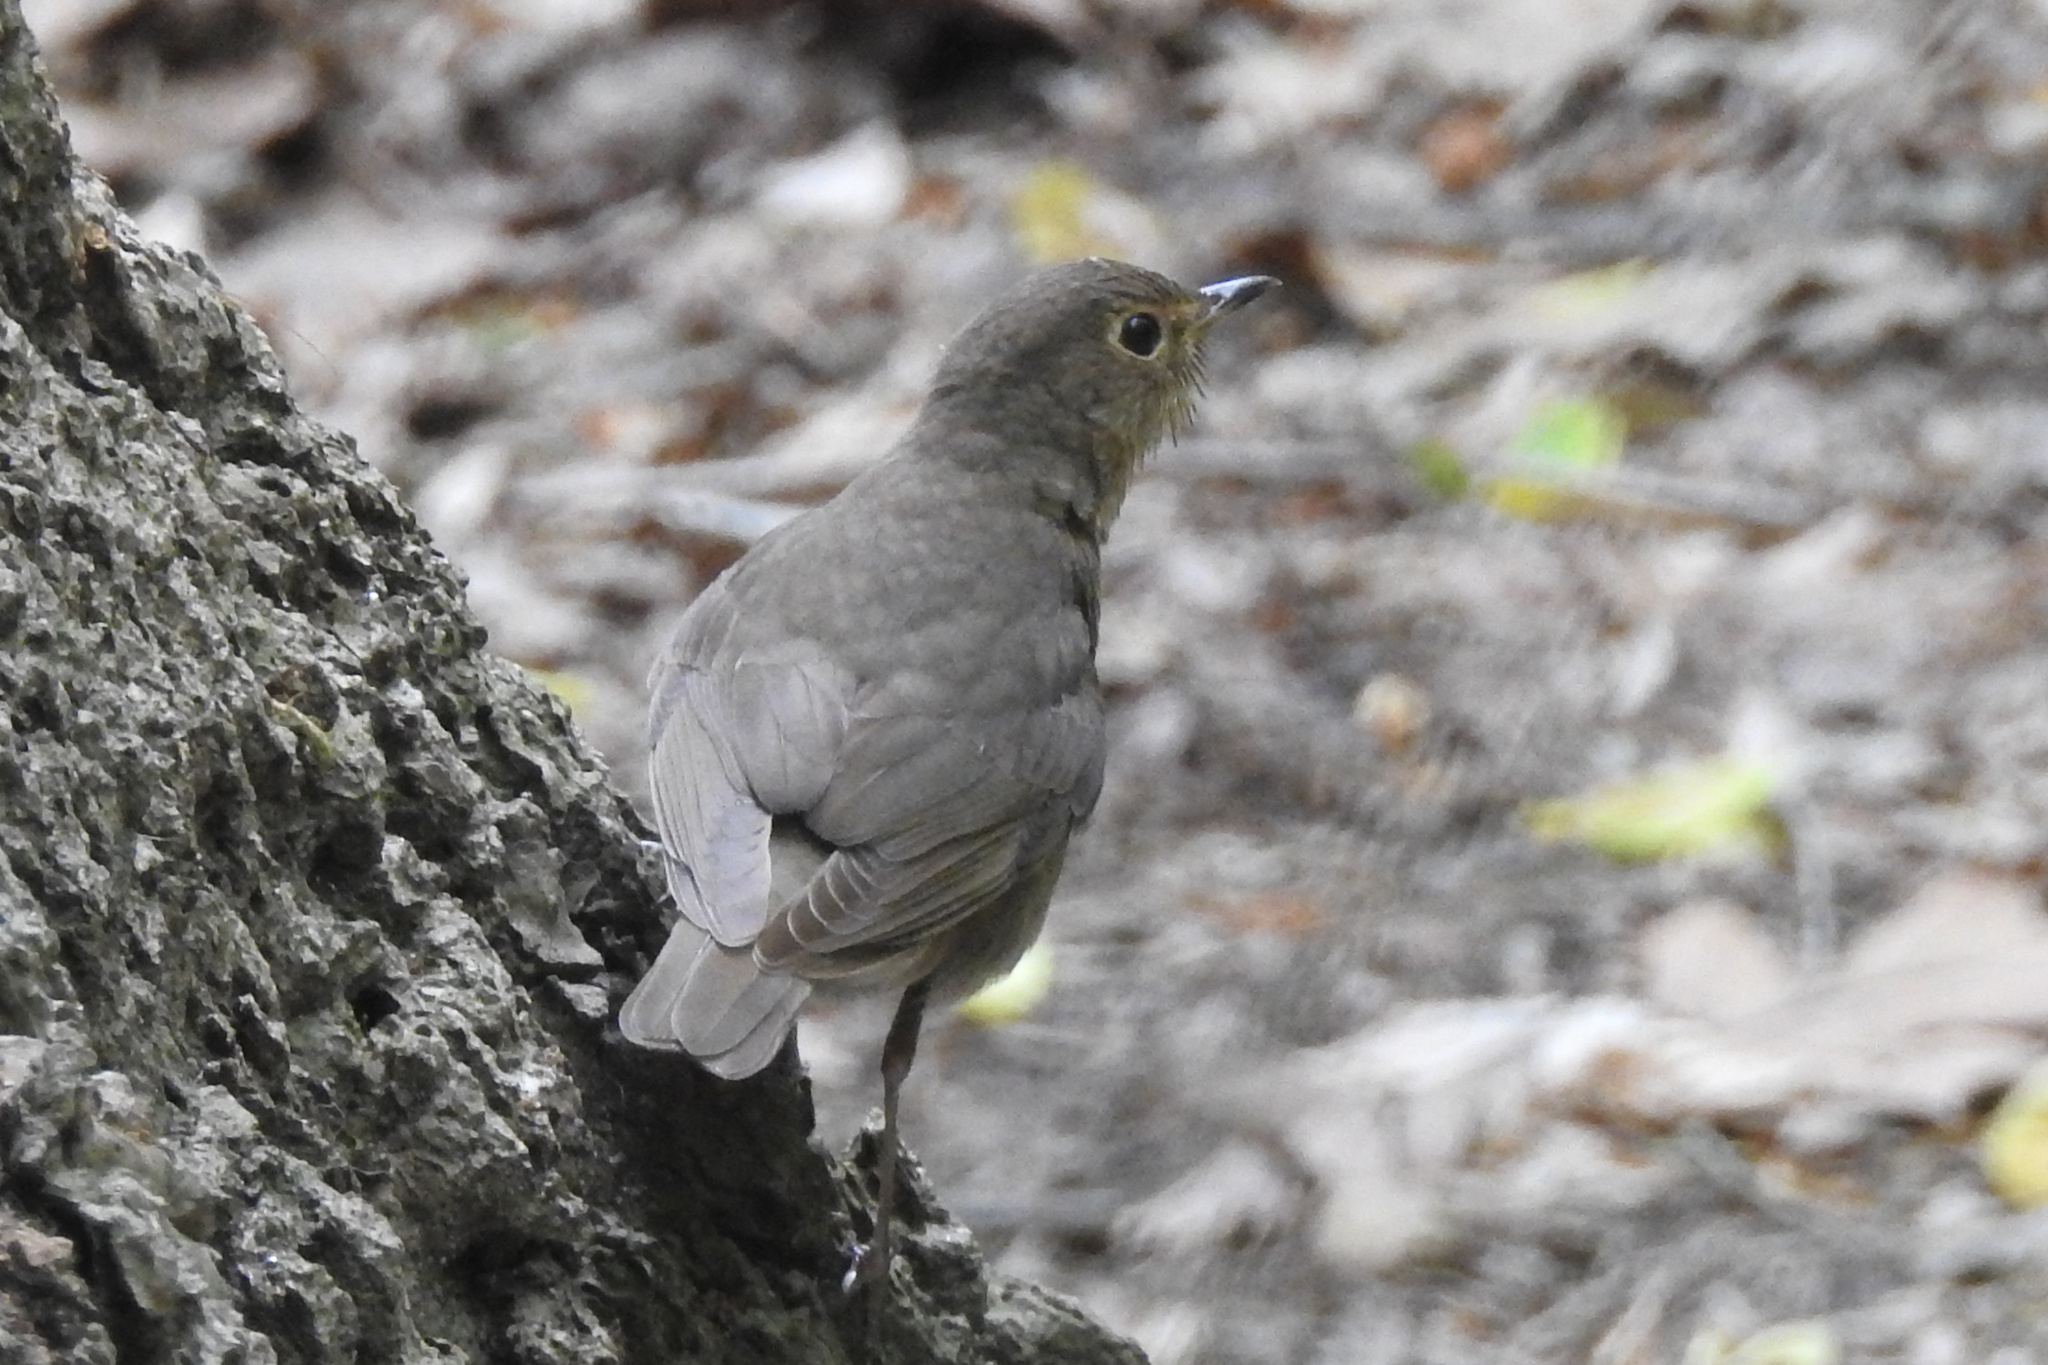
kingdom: Animalia
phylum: Chordata
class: Aves
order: Passeriformes
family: Turdidae
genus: Catharus
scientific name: Catharus ustulatus
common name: Swainson's thrush
